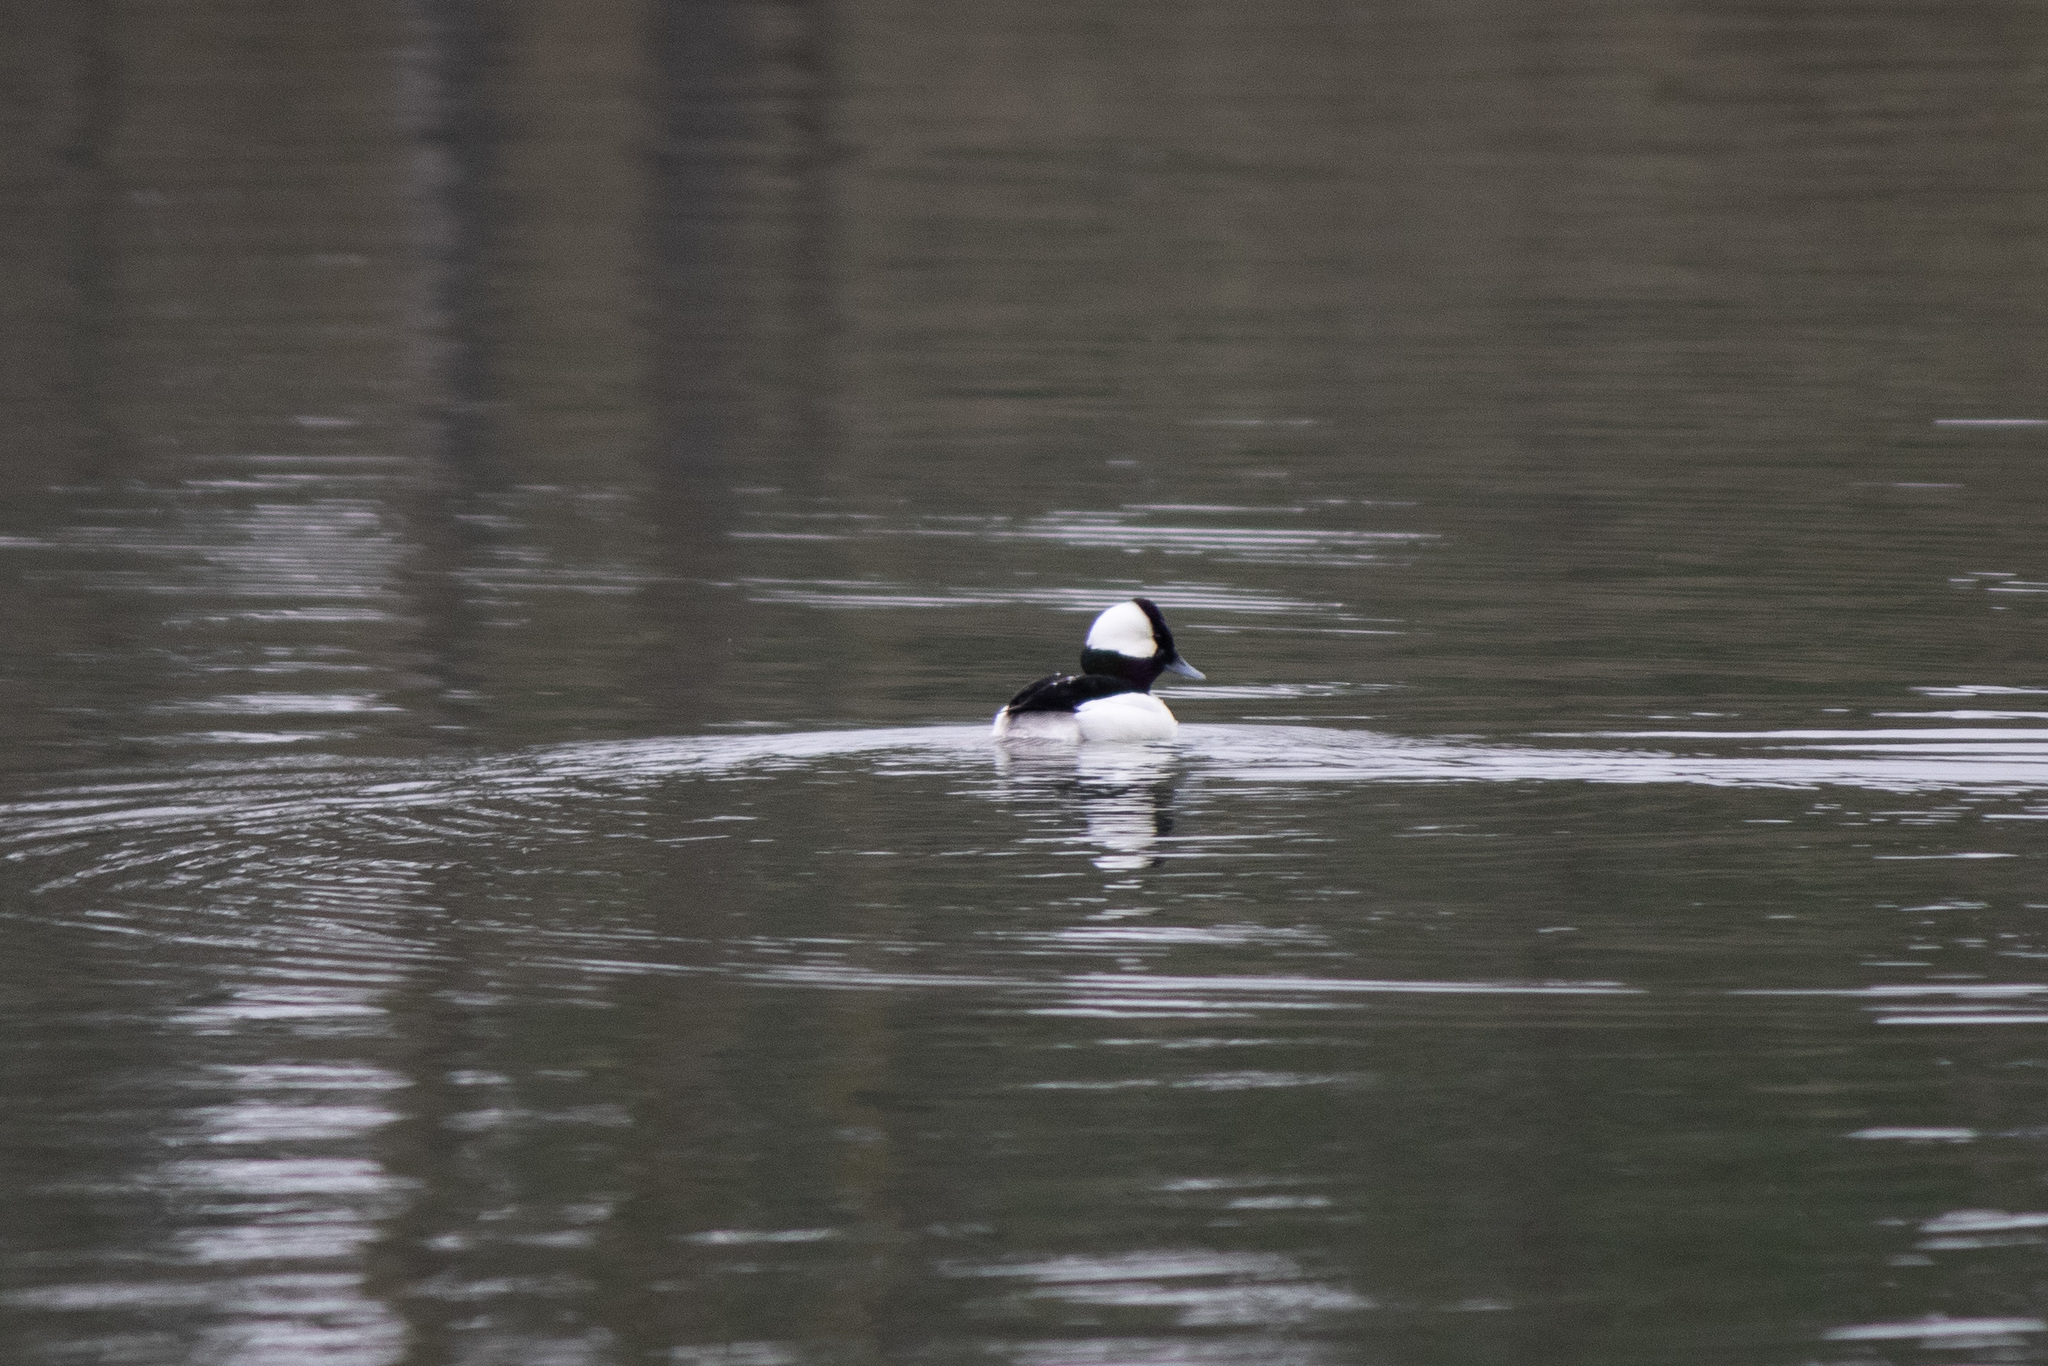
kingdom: Animalia
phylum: Chordata
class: Aves
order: Anseriformes
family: Anatidae
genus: Bucephala
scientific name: Bucephala albeola
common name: Bufflehead
